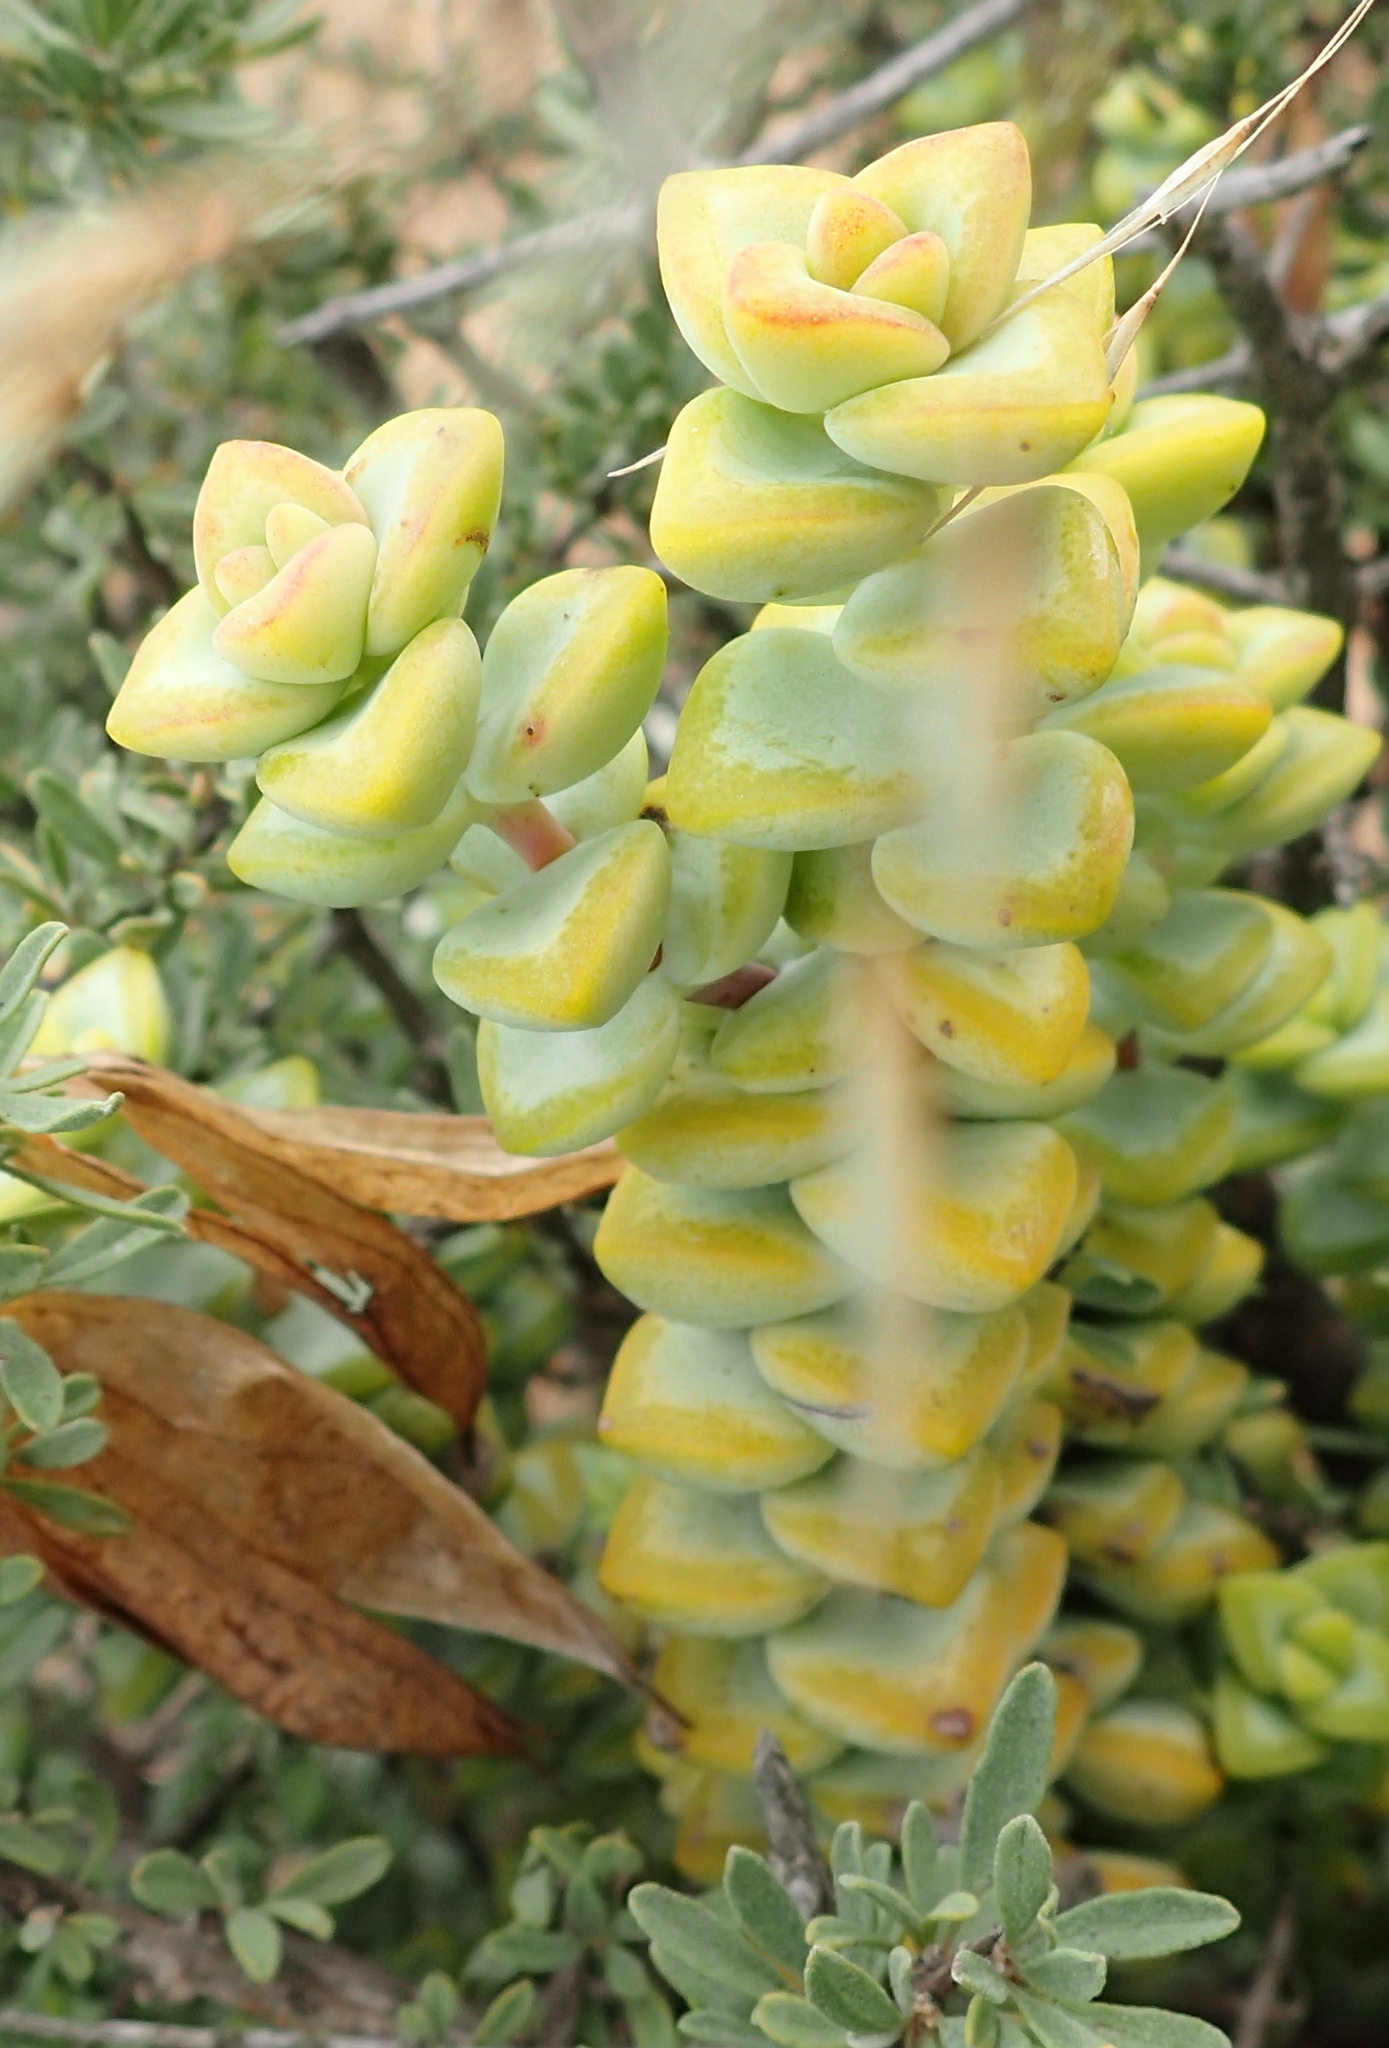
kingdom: Plantae
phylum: Tracheophyta
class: Magnoliopsida
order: Saxifragales
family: Crassulaceae
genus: Crassula
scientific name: Crassula rupestris
